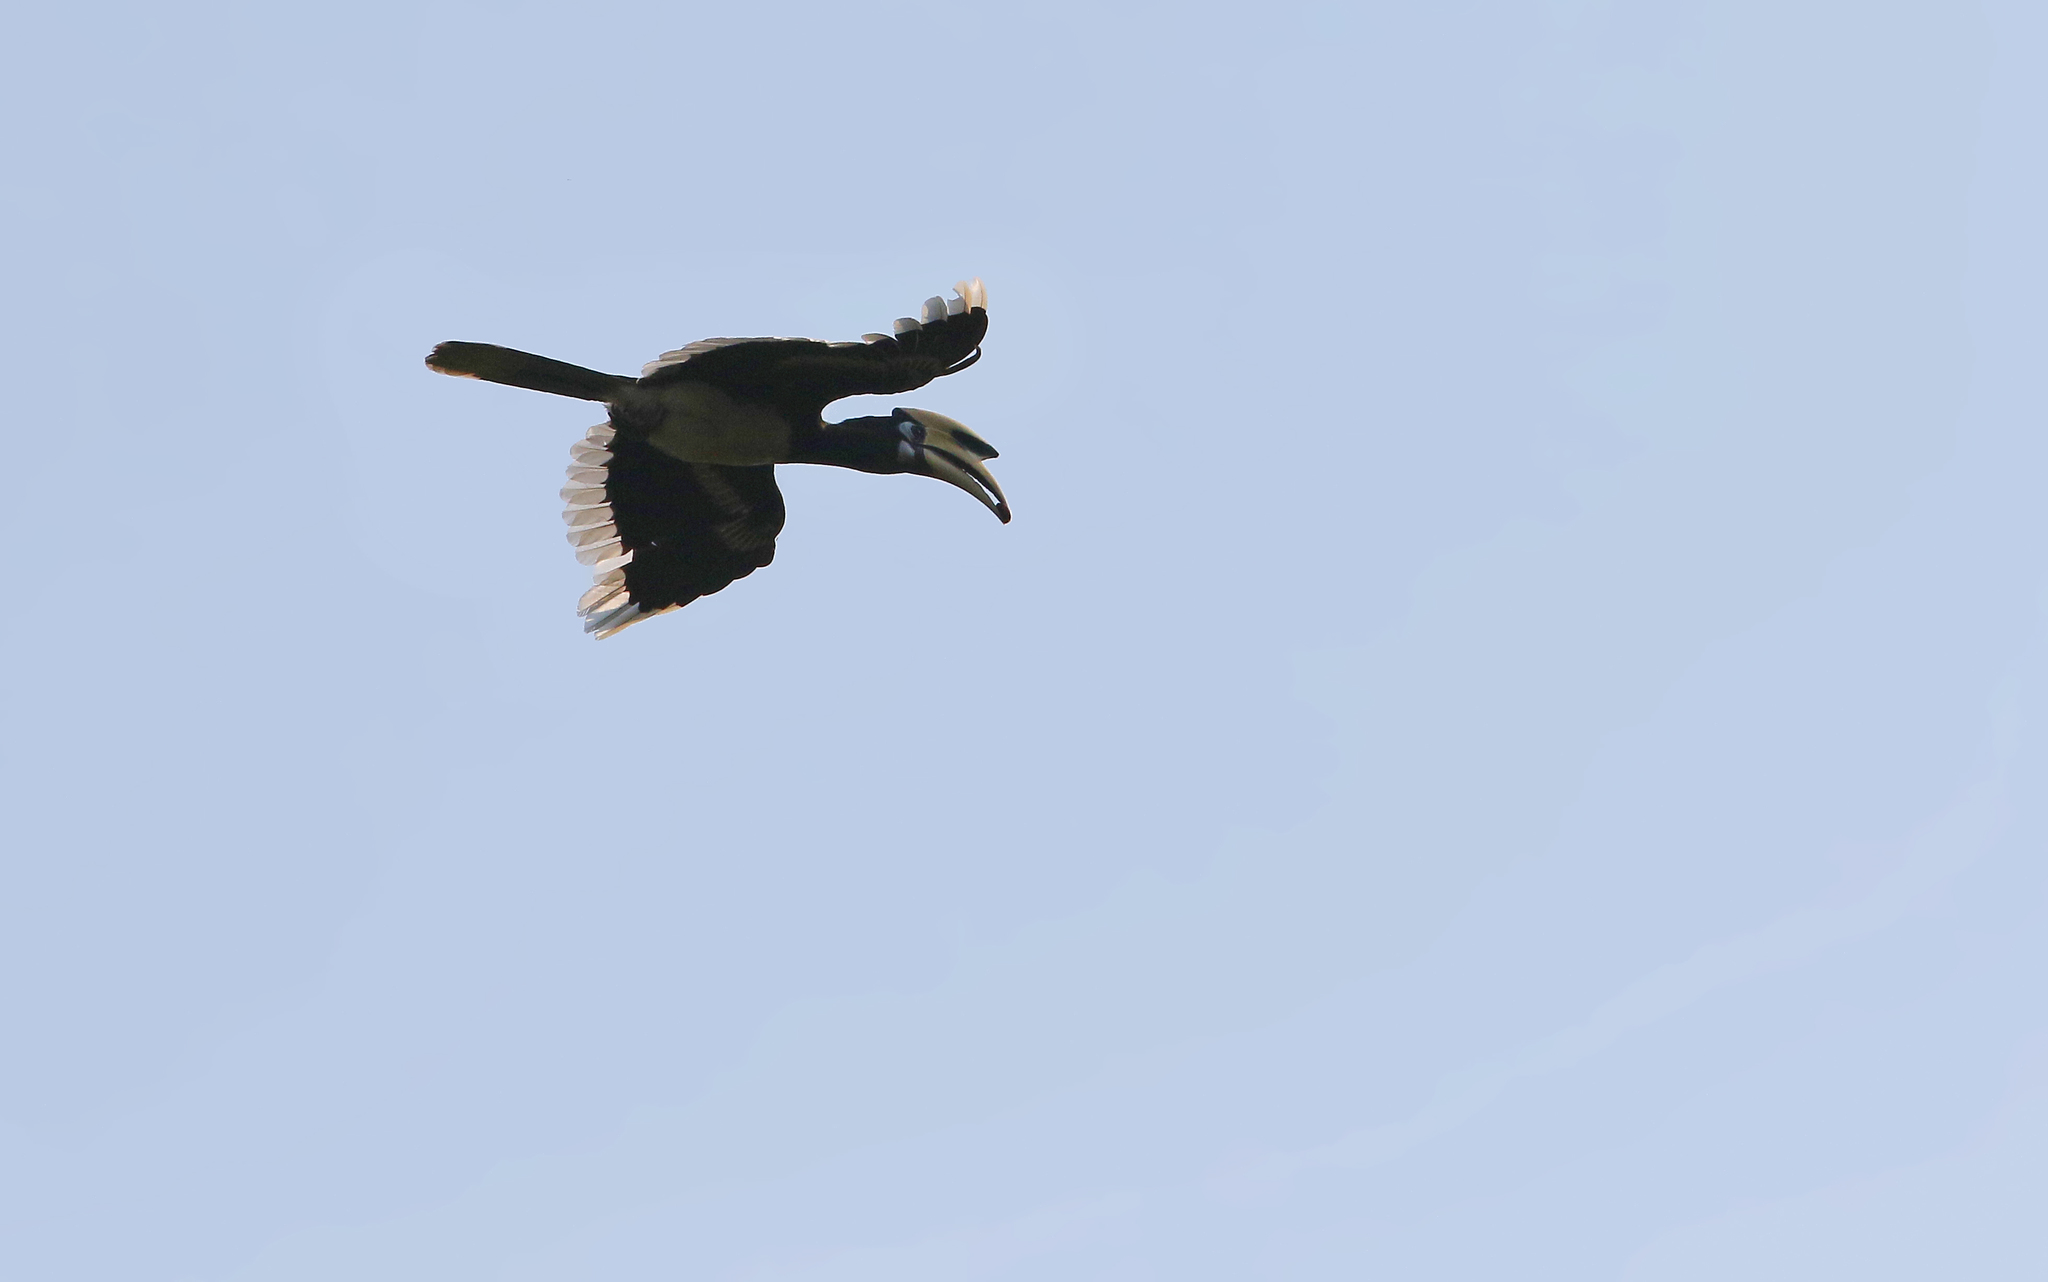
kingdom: Animalia
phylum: Chordata
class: Aves
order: Bucerotiformes
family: Bucerotidae
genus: Anthracoceros
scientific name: Anthracoceros albirostris
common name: Oriental pied-hornbill
